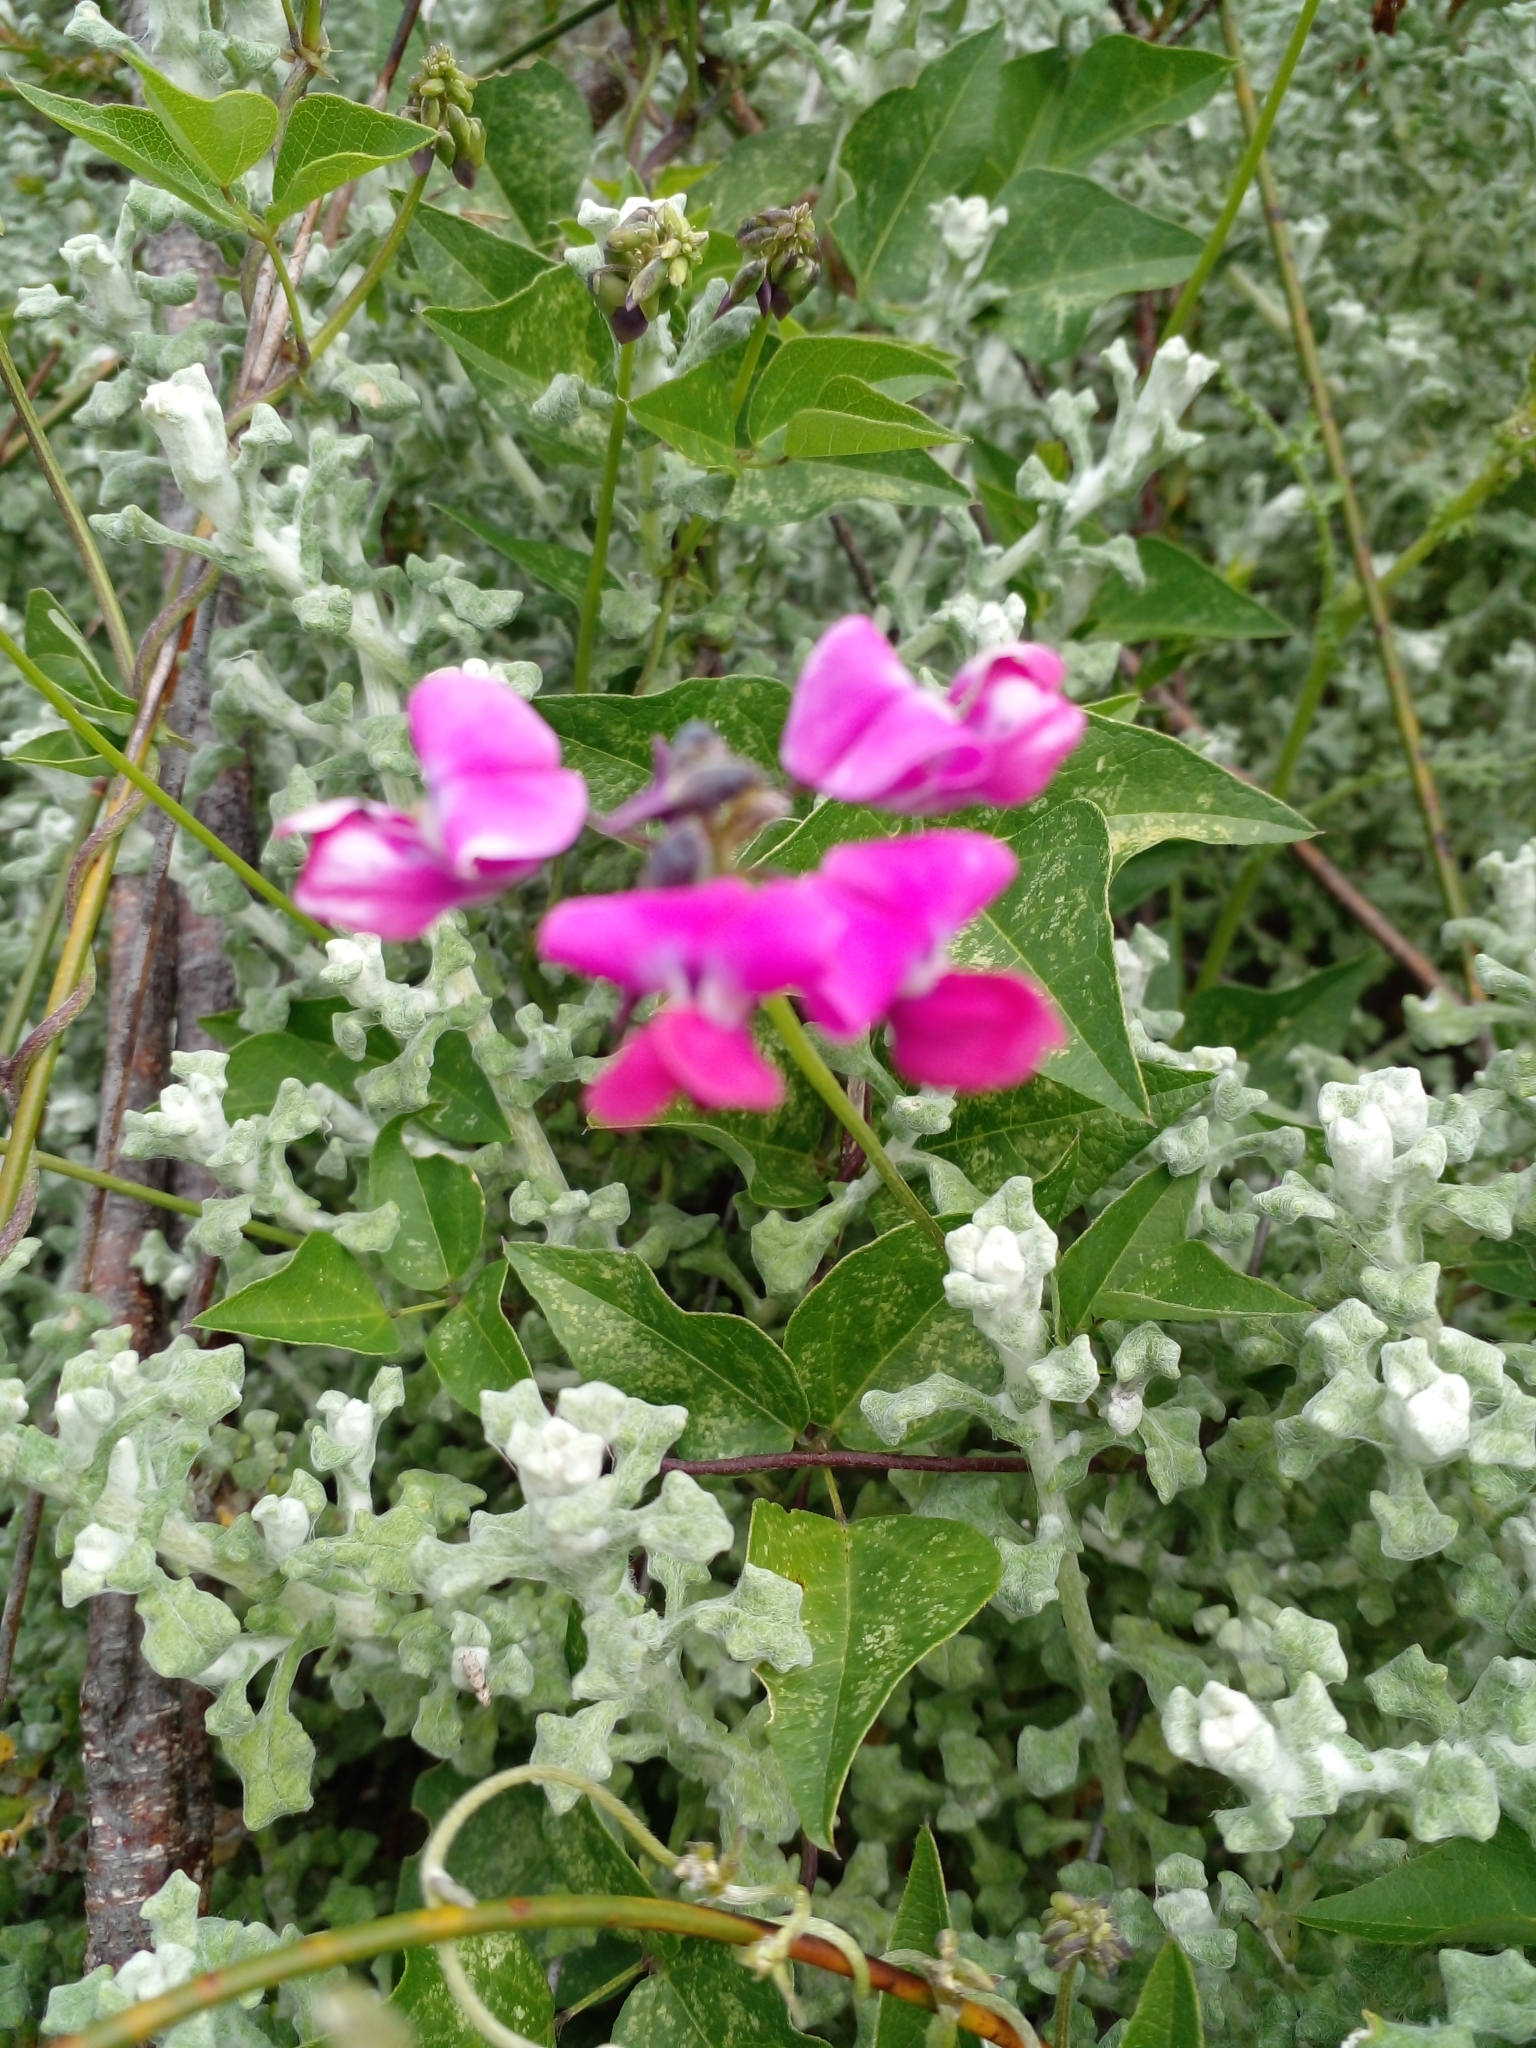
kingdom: Plantae
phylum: Tracheophyta
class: Magnoliopsida
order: Fabales
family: Fabaceae
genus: Dipogon
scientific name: Dipogon lignosus
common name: Okie bean
